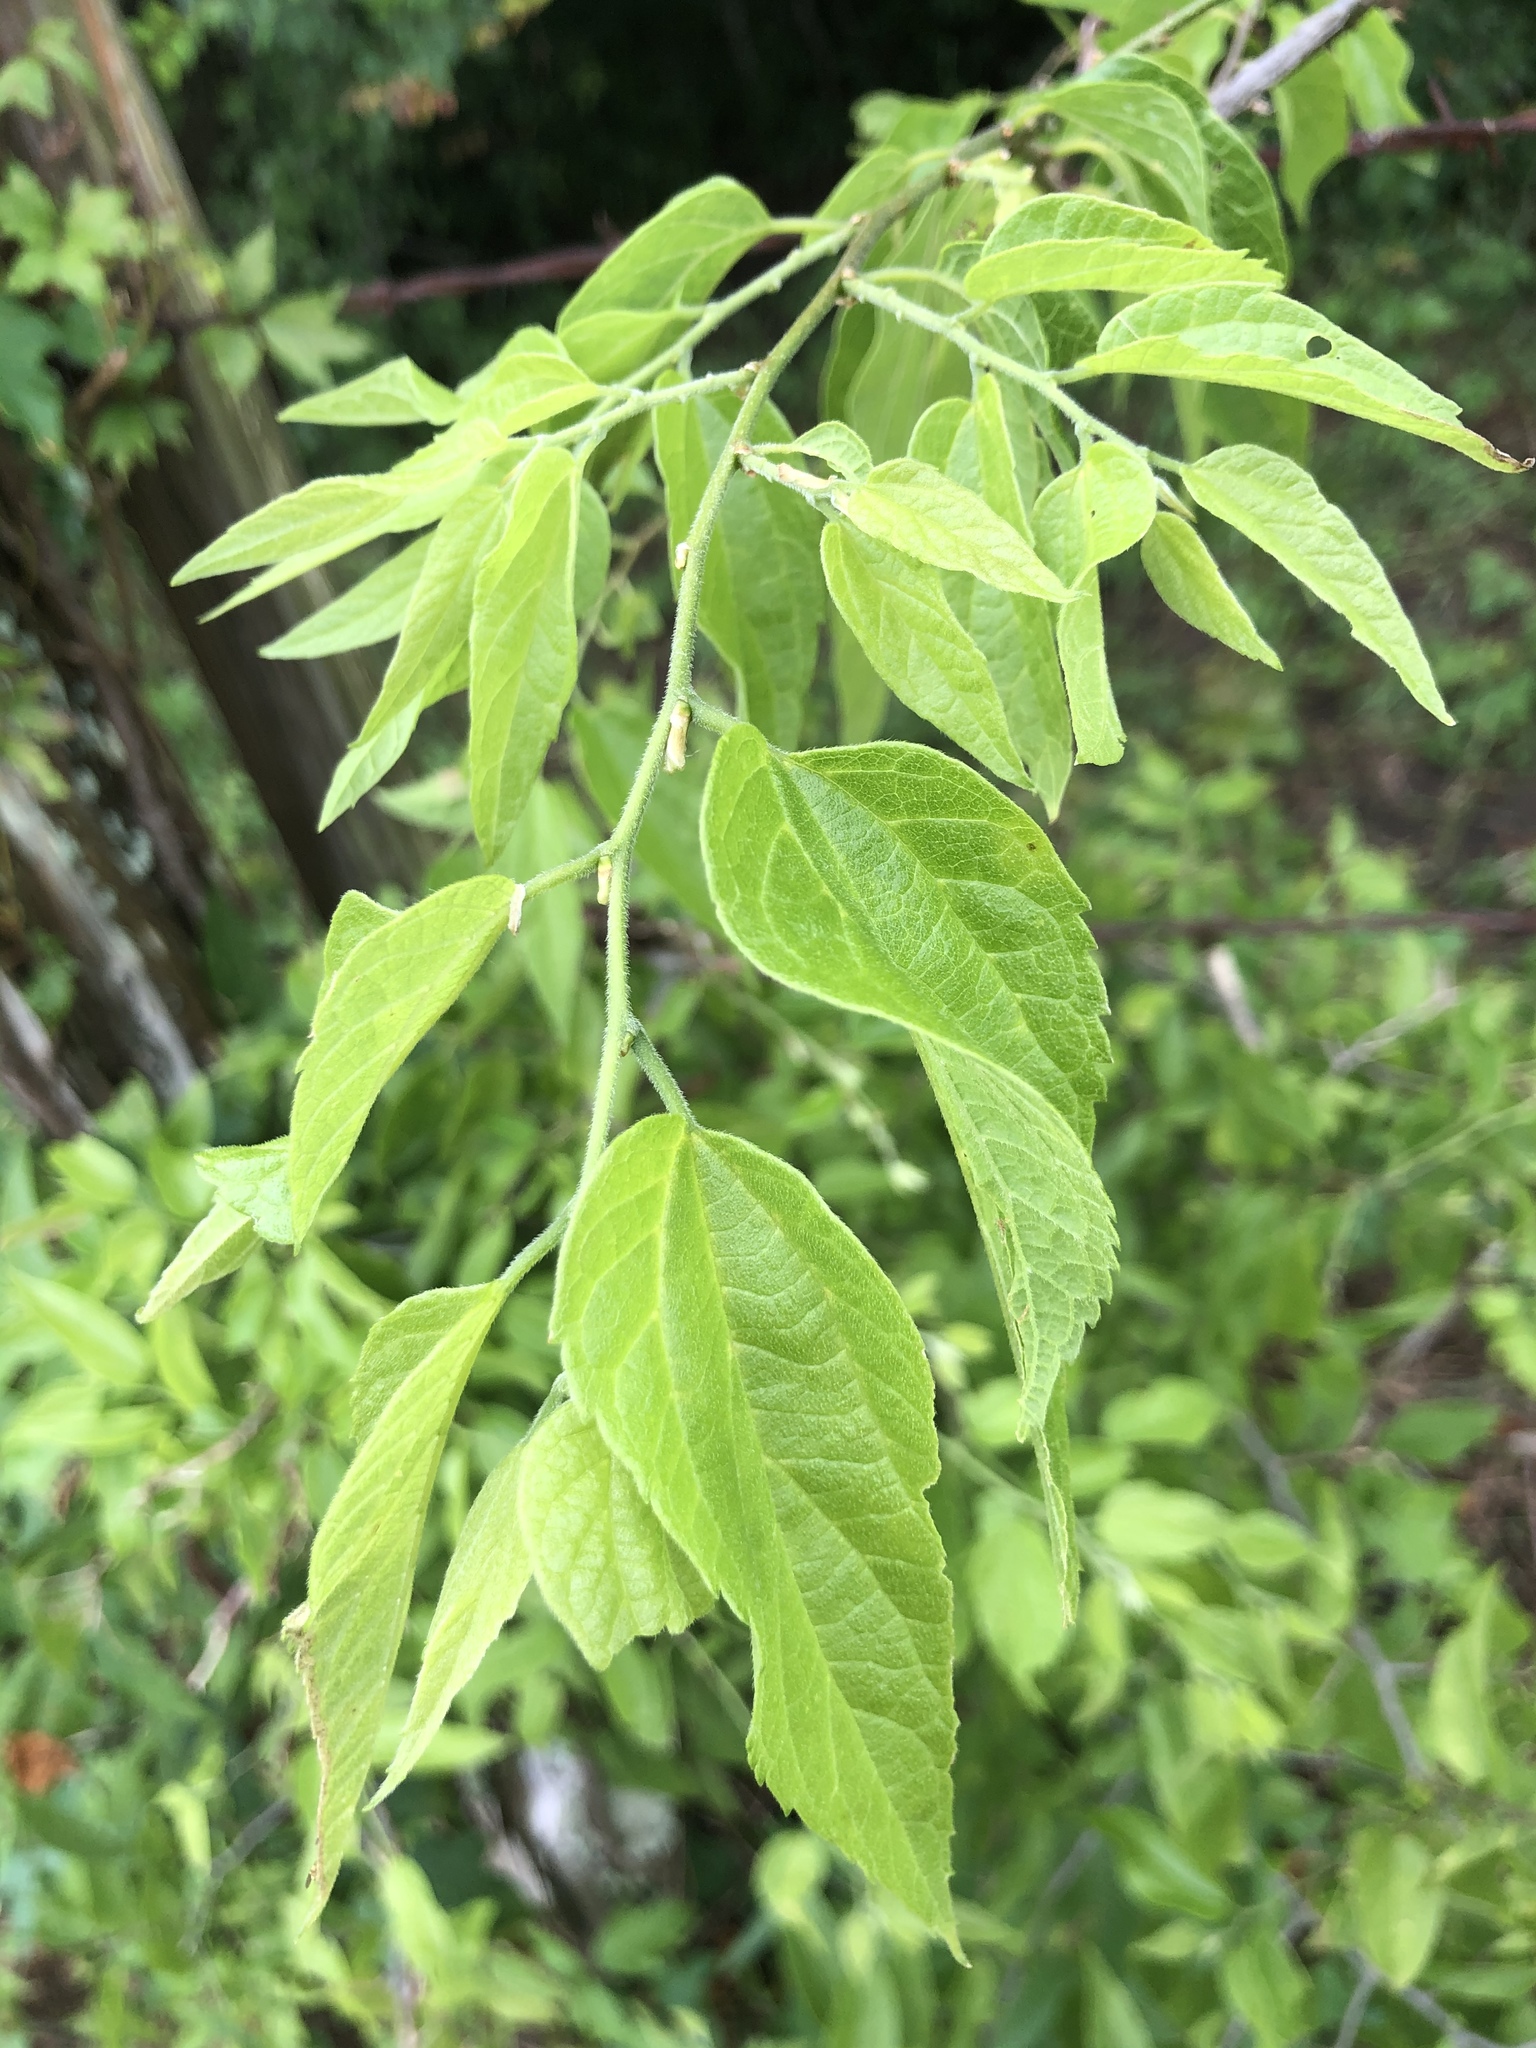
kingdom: Plantae
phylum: Tracheophyta
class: Magnoliopsida
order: Rosales
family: Cannabaceae
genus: Celtis
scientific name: Celtis laevigata
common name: Sugarberry
